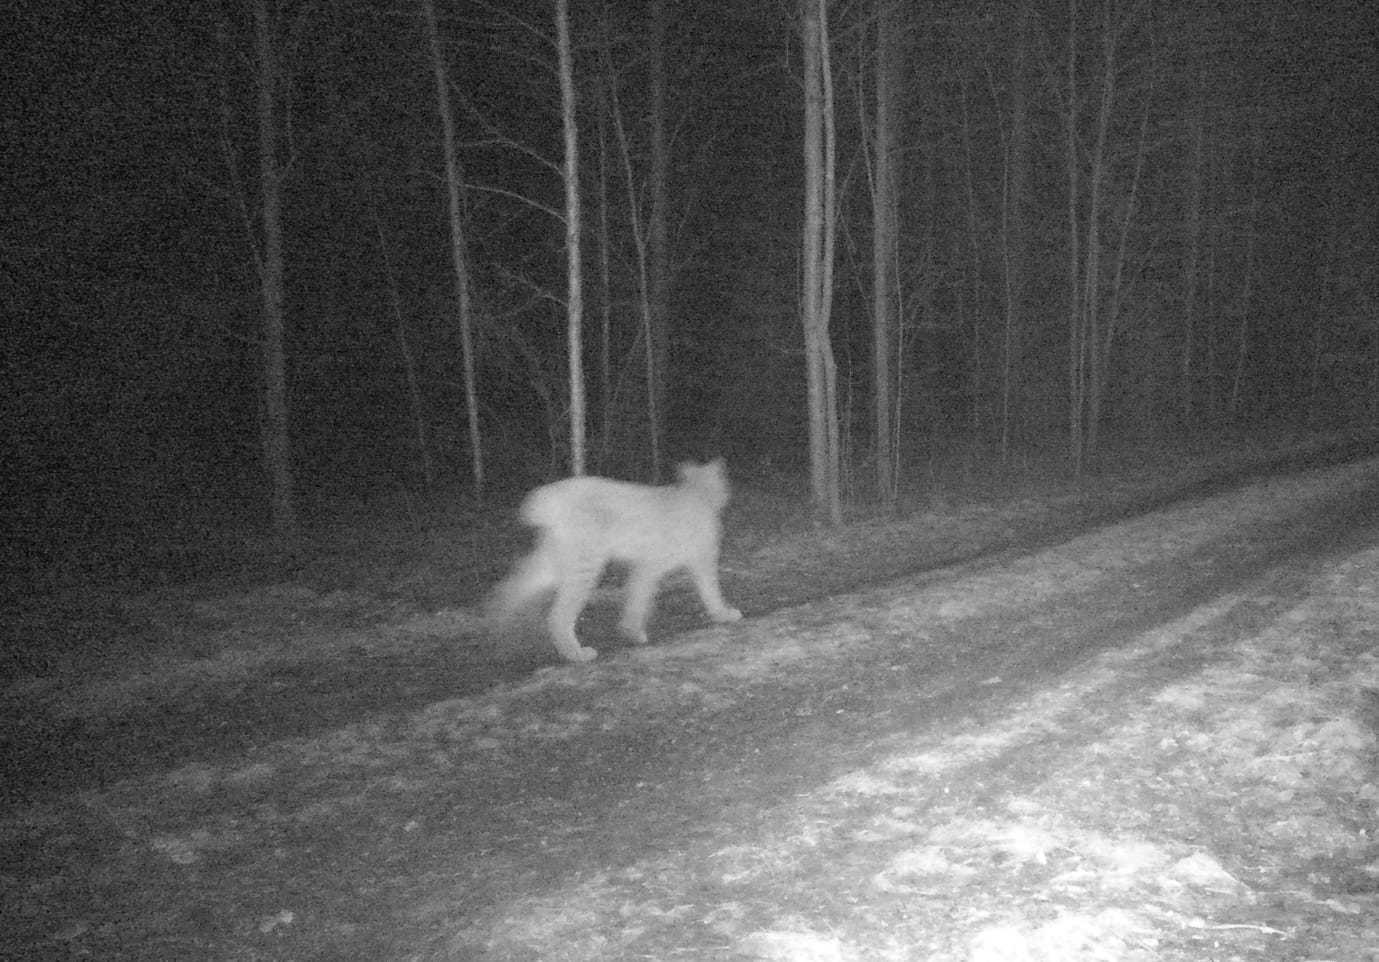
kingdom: Animalia
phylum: Chordata
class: Mammalia
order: Carnivora
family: Felidae
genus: Lynx
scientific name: Lynx lynx
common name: Eurasian lynx
